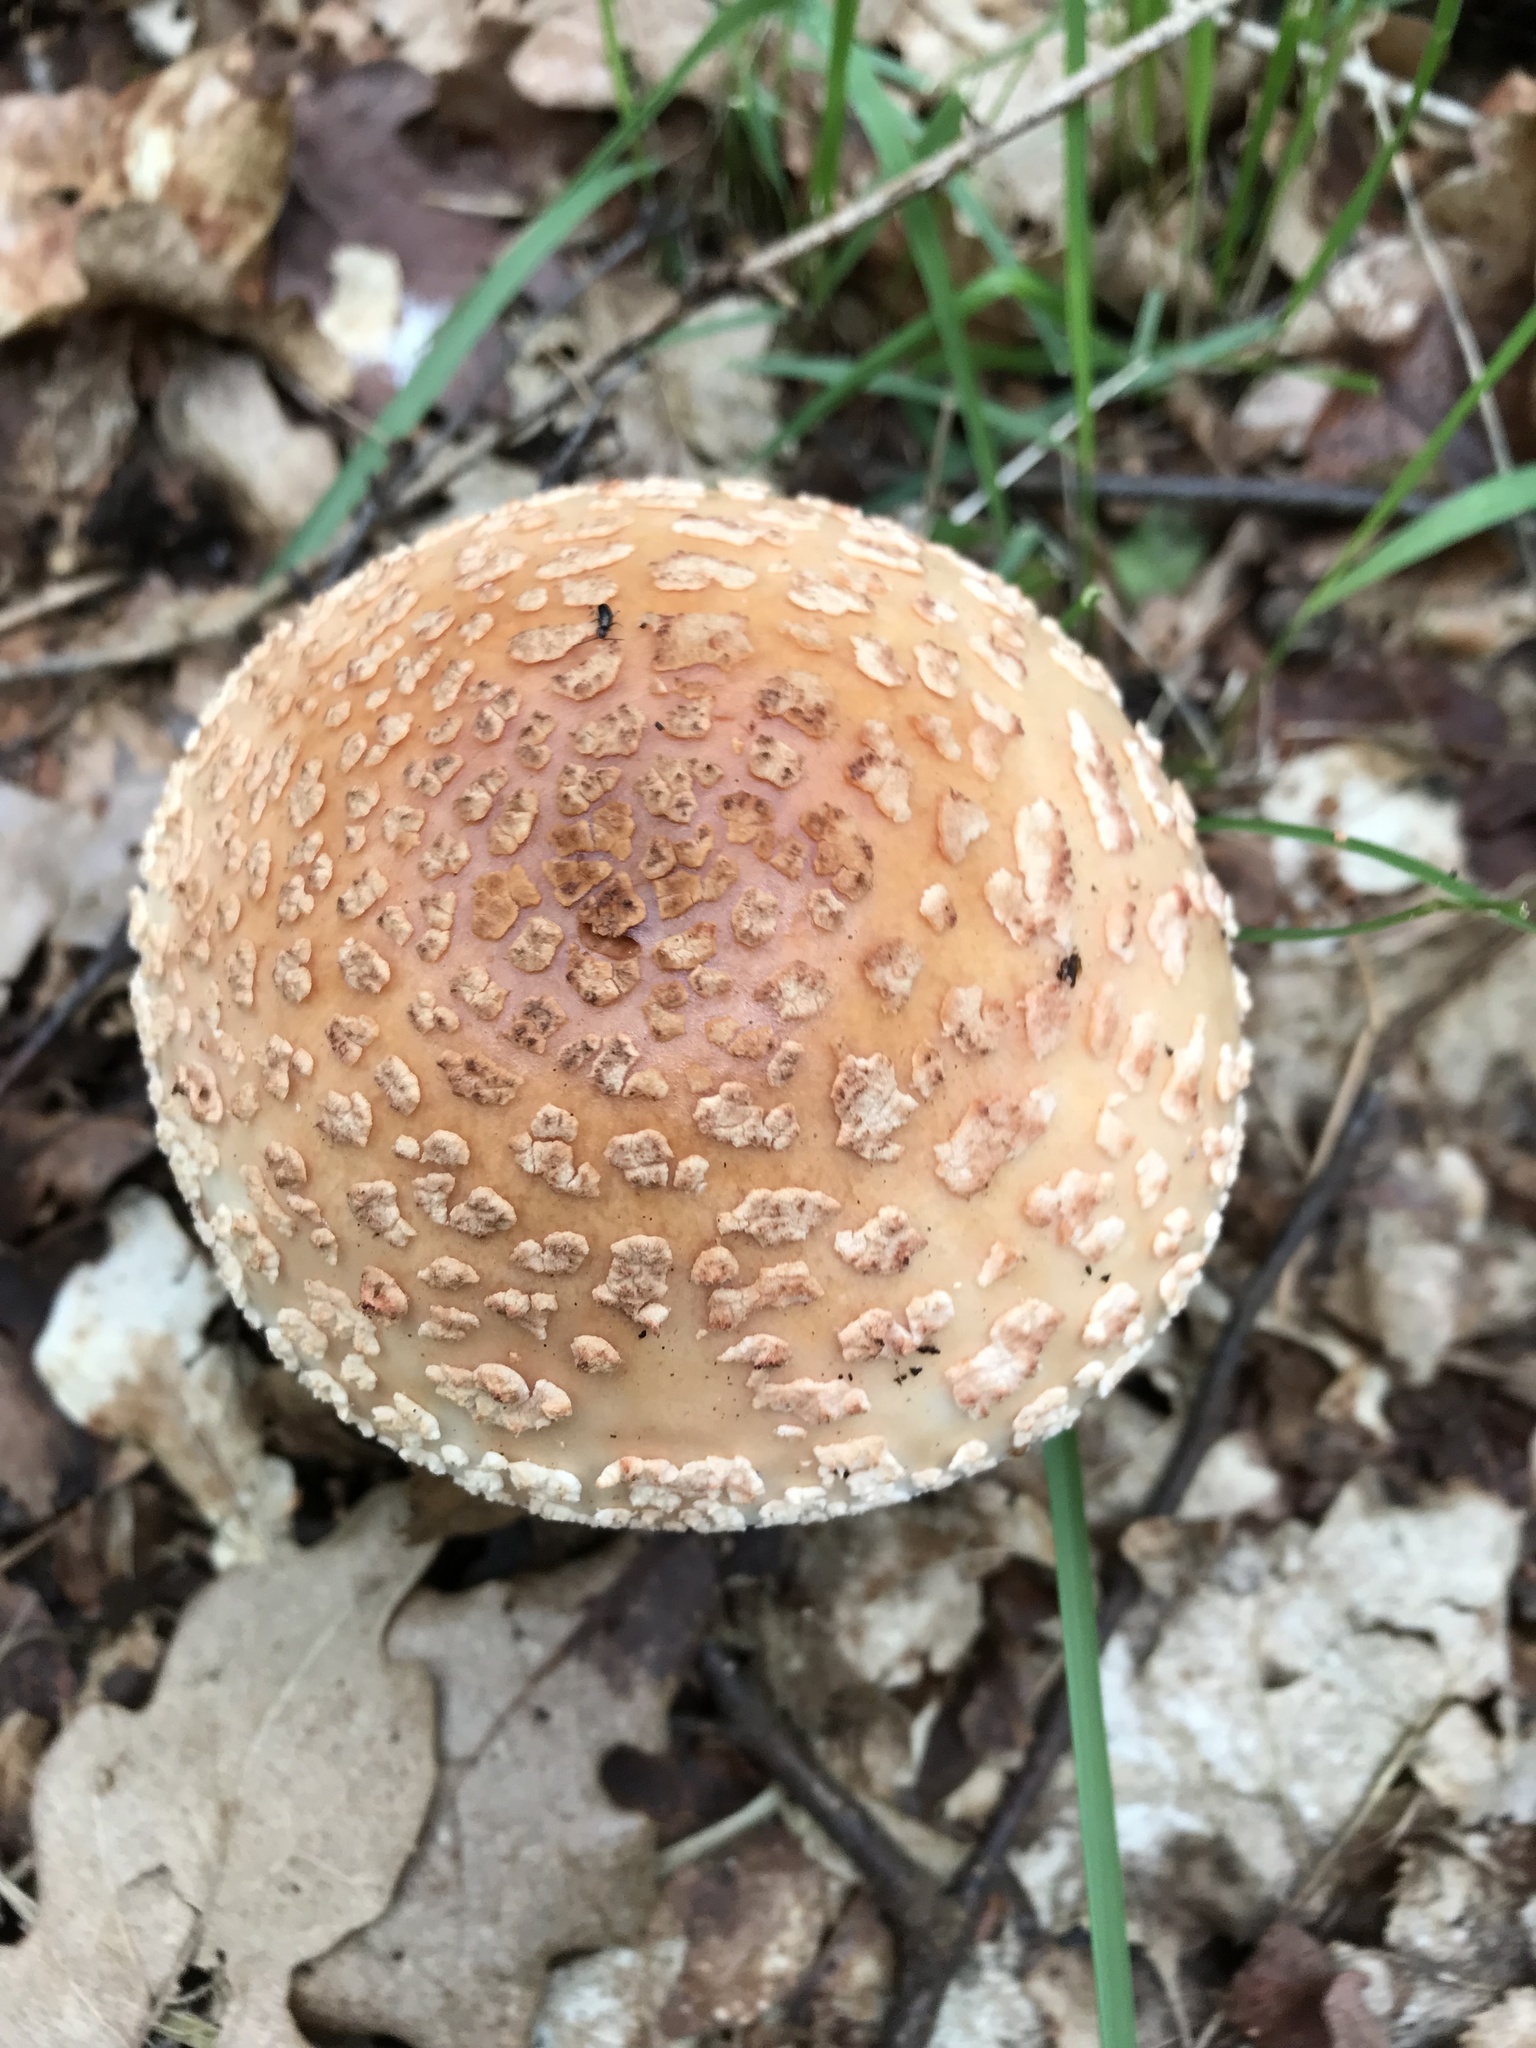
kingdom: Fungi
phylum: Basidiomycota
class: Agaricomycetes
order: Agaricales
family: Amanitaceae
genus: Amanita
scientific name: Amanita rubescens
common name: Blusher
